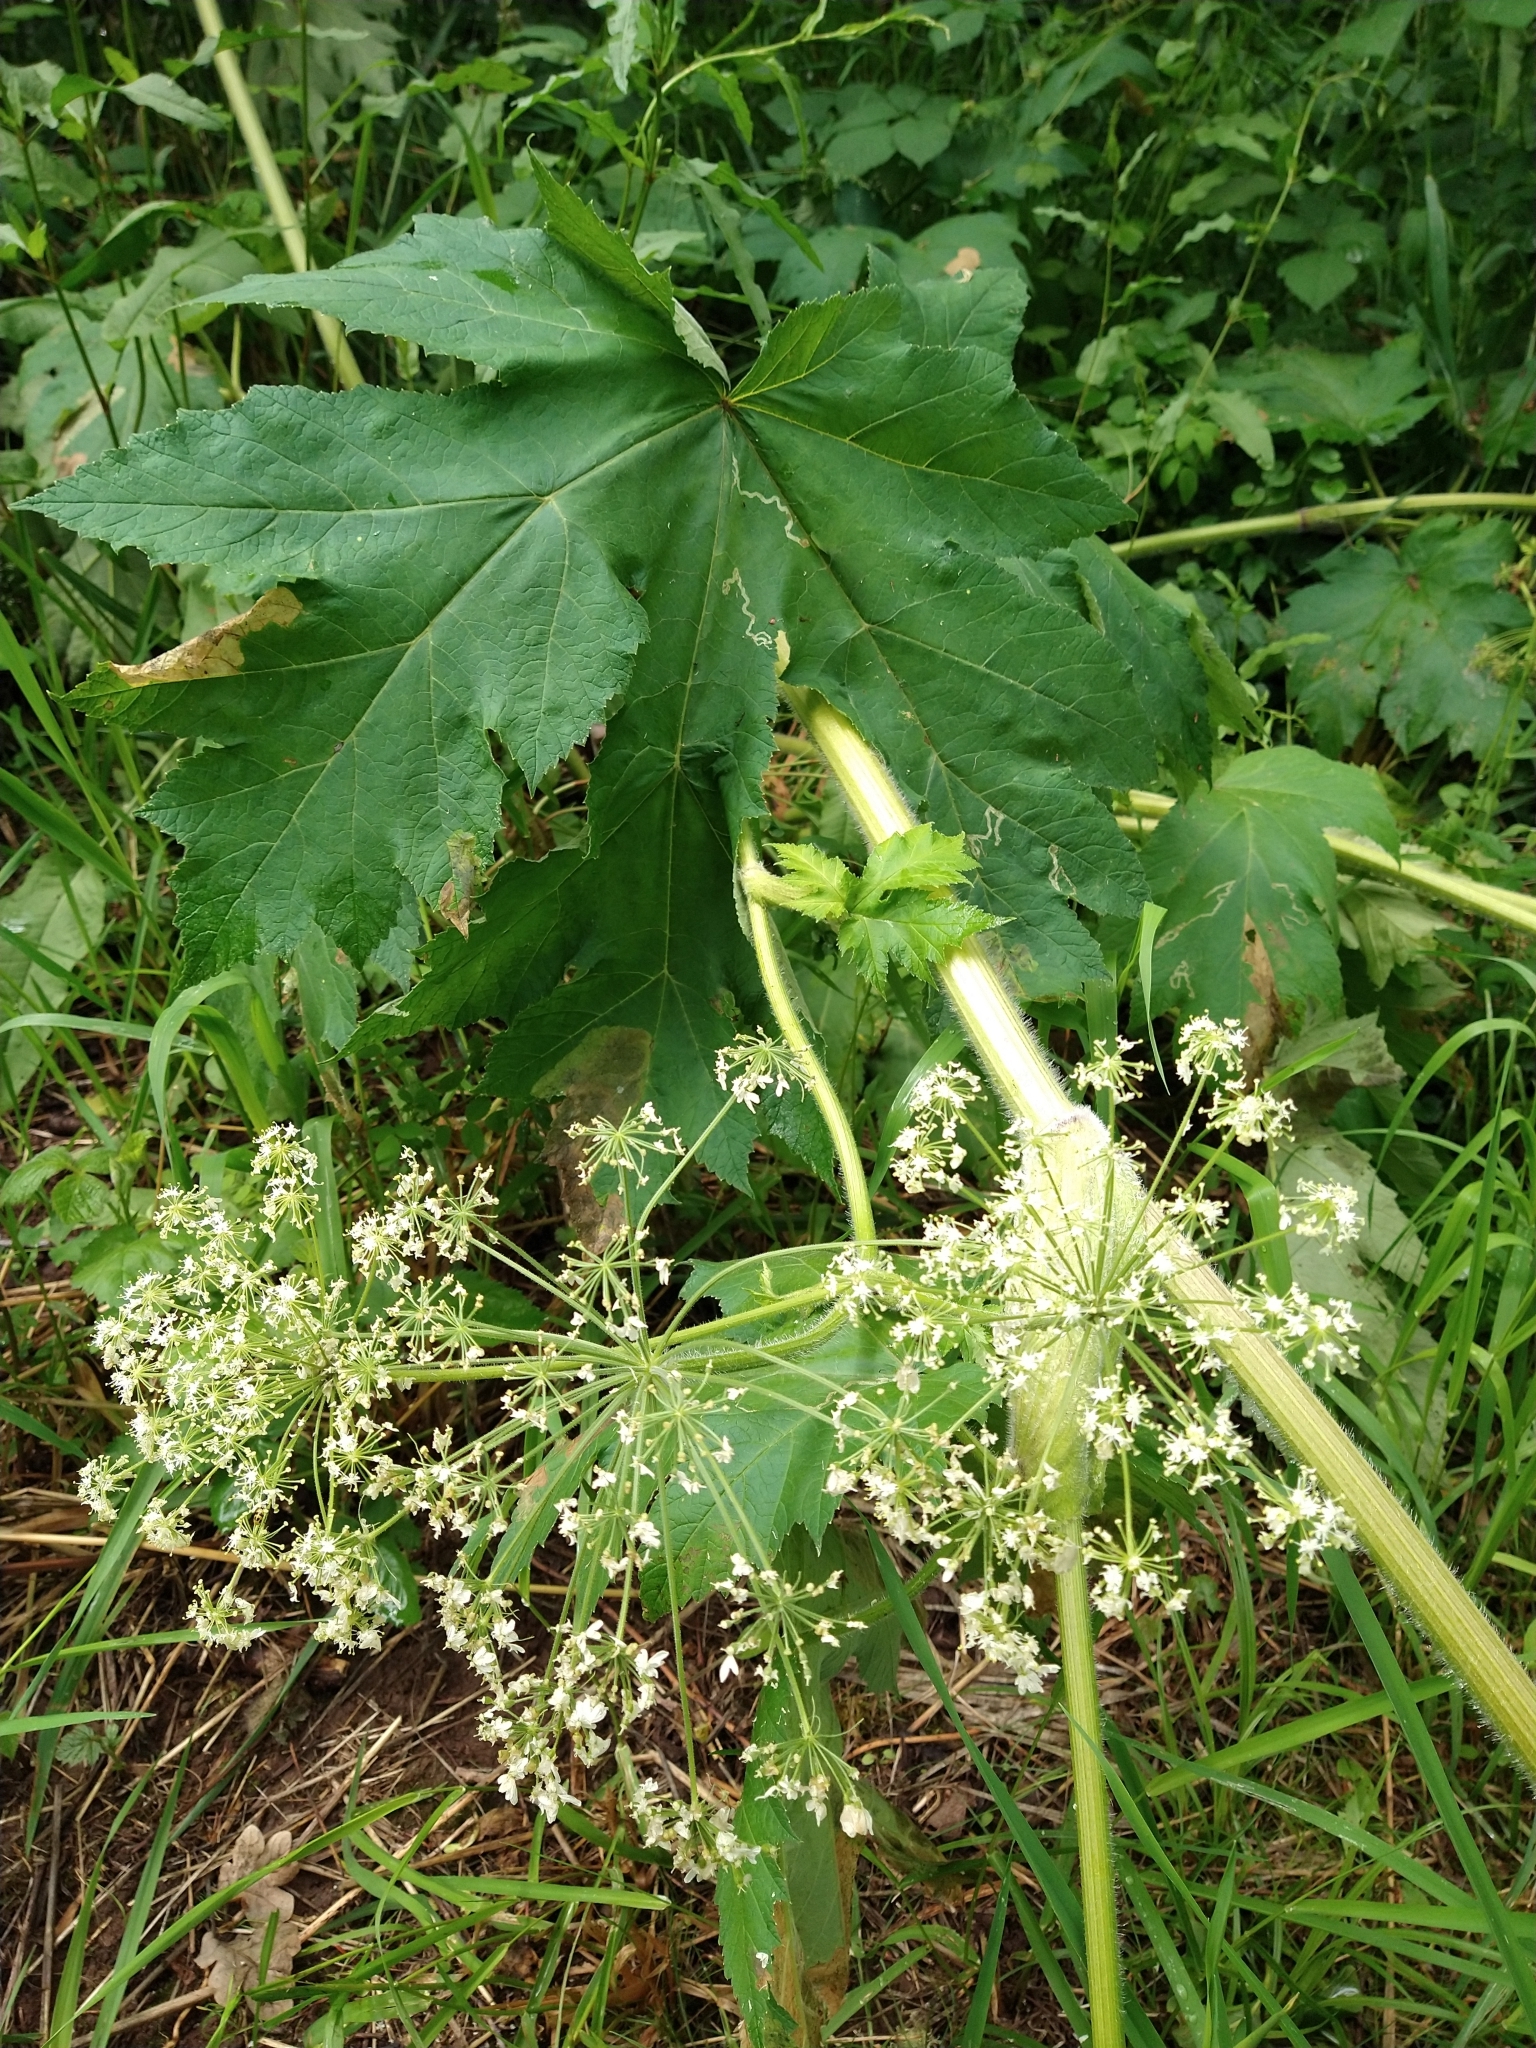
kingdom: Plantae
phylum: Tracheophyta
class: Magnoliopsida
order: Apiales
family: Apiaceae
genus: Heracleum
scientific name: Heracleum maximum
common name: American cow parsnip
